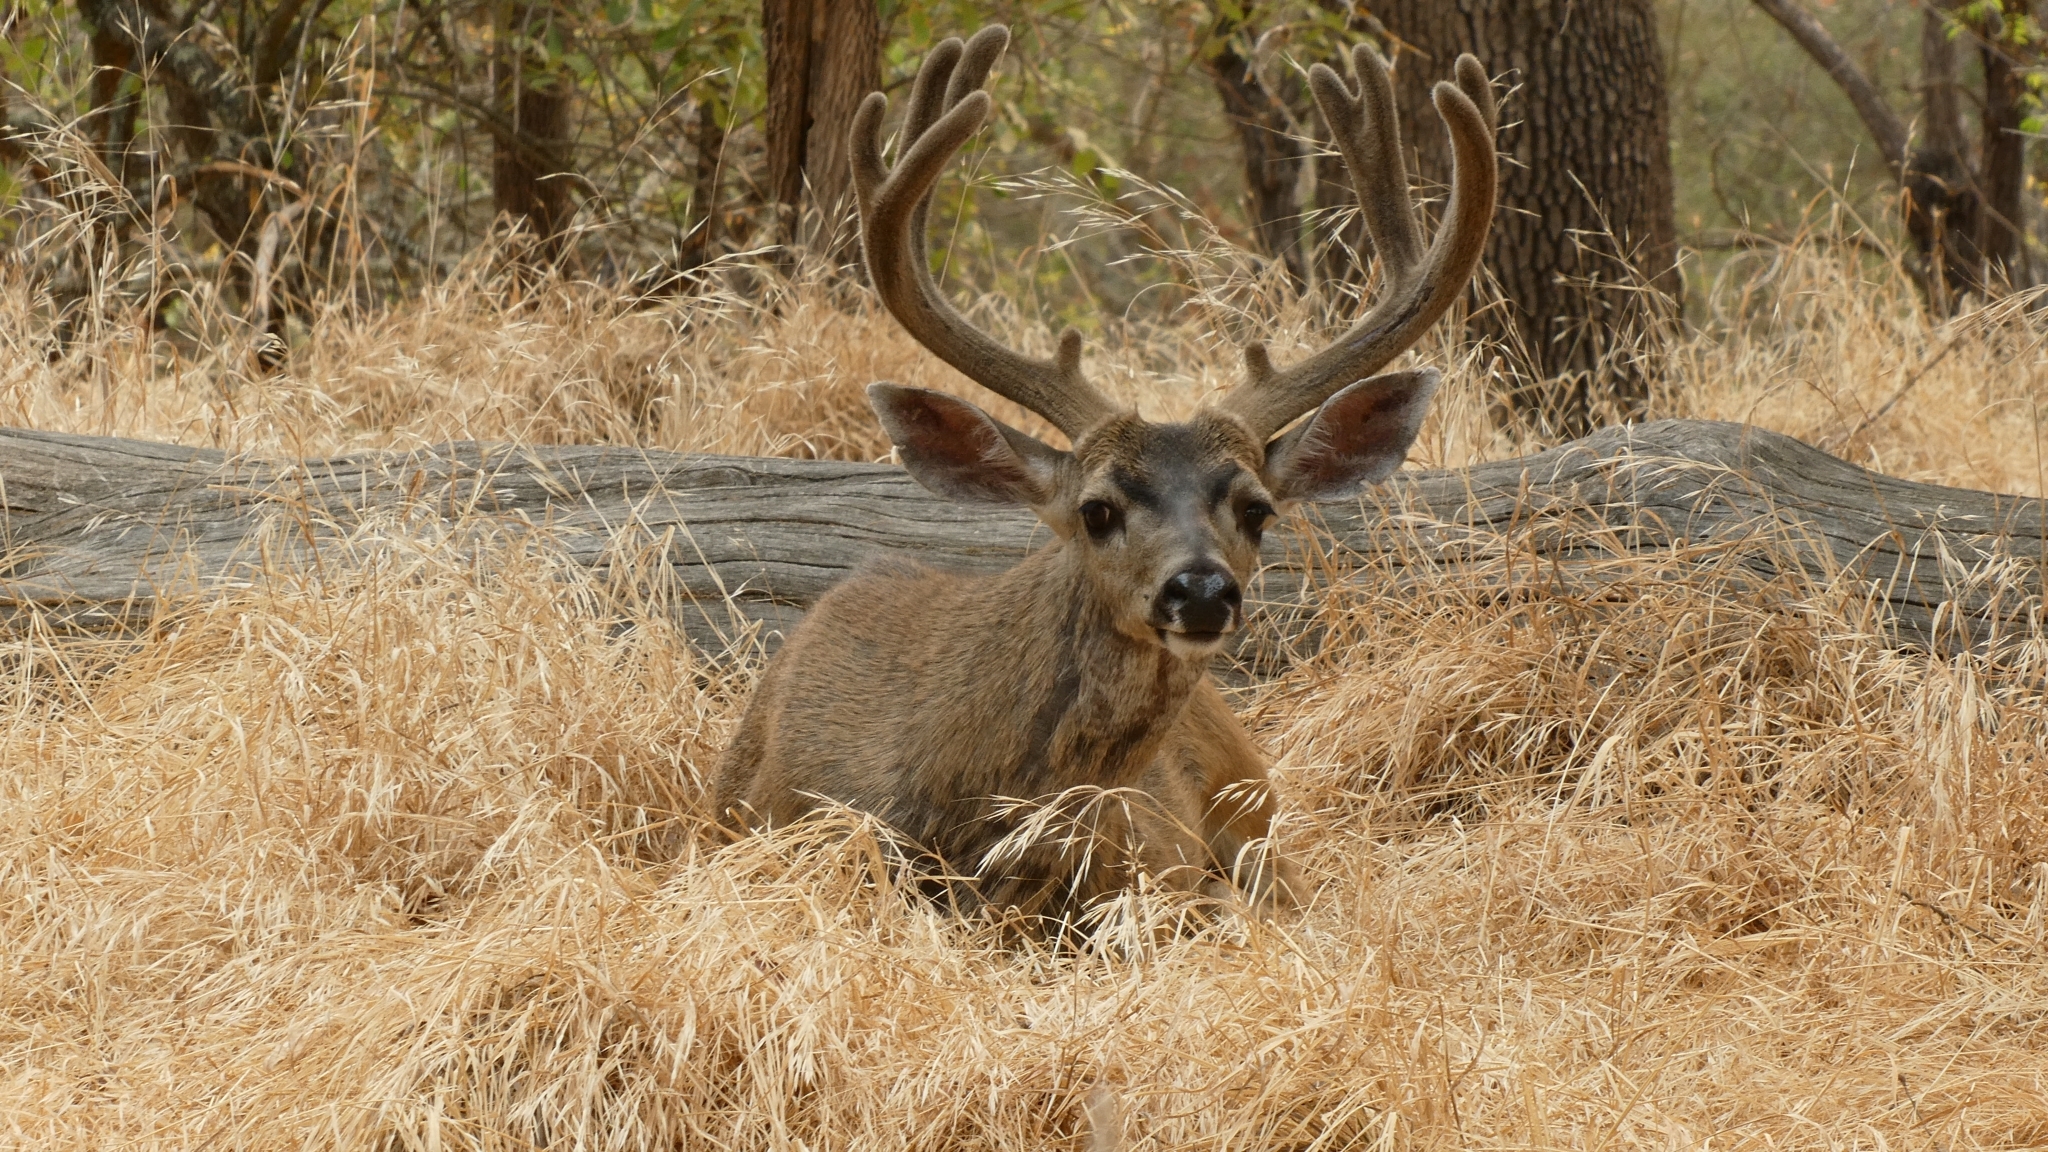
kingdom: Animalia
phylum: Chordata
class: Mammalia
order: Artiodactyla
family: Cervidae
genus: Odocoileus
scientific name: Odocoileus hemionus
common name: Mule deer
